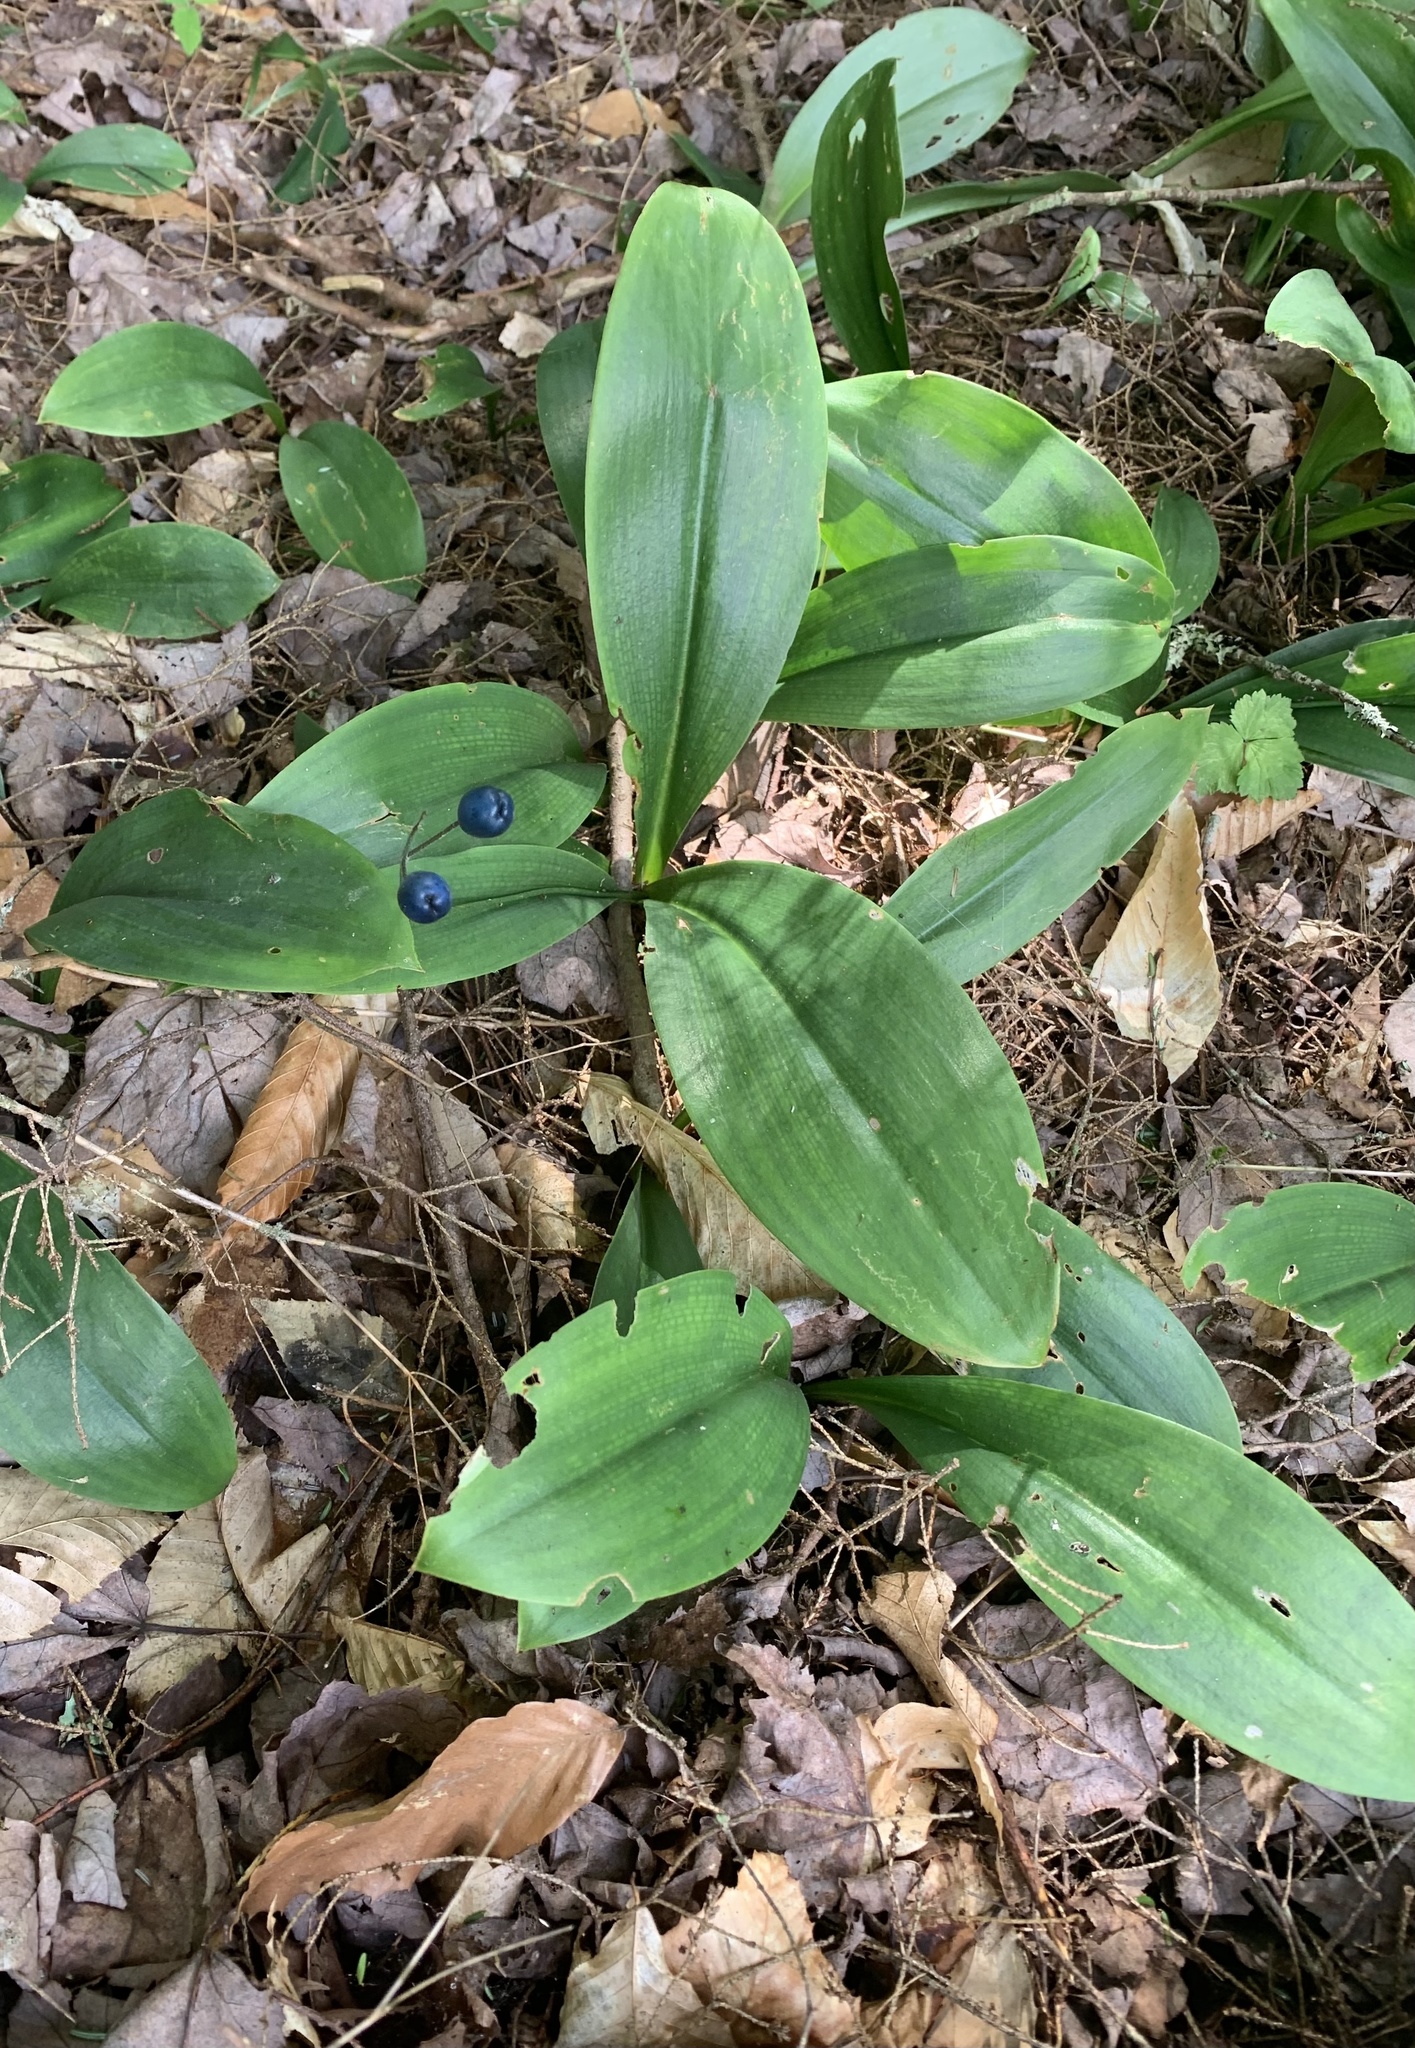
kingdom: Plantae
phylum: Tracheophyta
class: Liliopsida
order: Liliales
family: Liliaceae
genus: Clintonia
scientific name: Clintonia borealis
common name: Yellow clintonia
